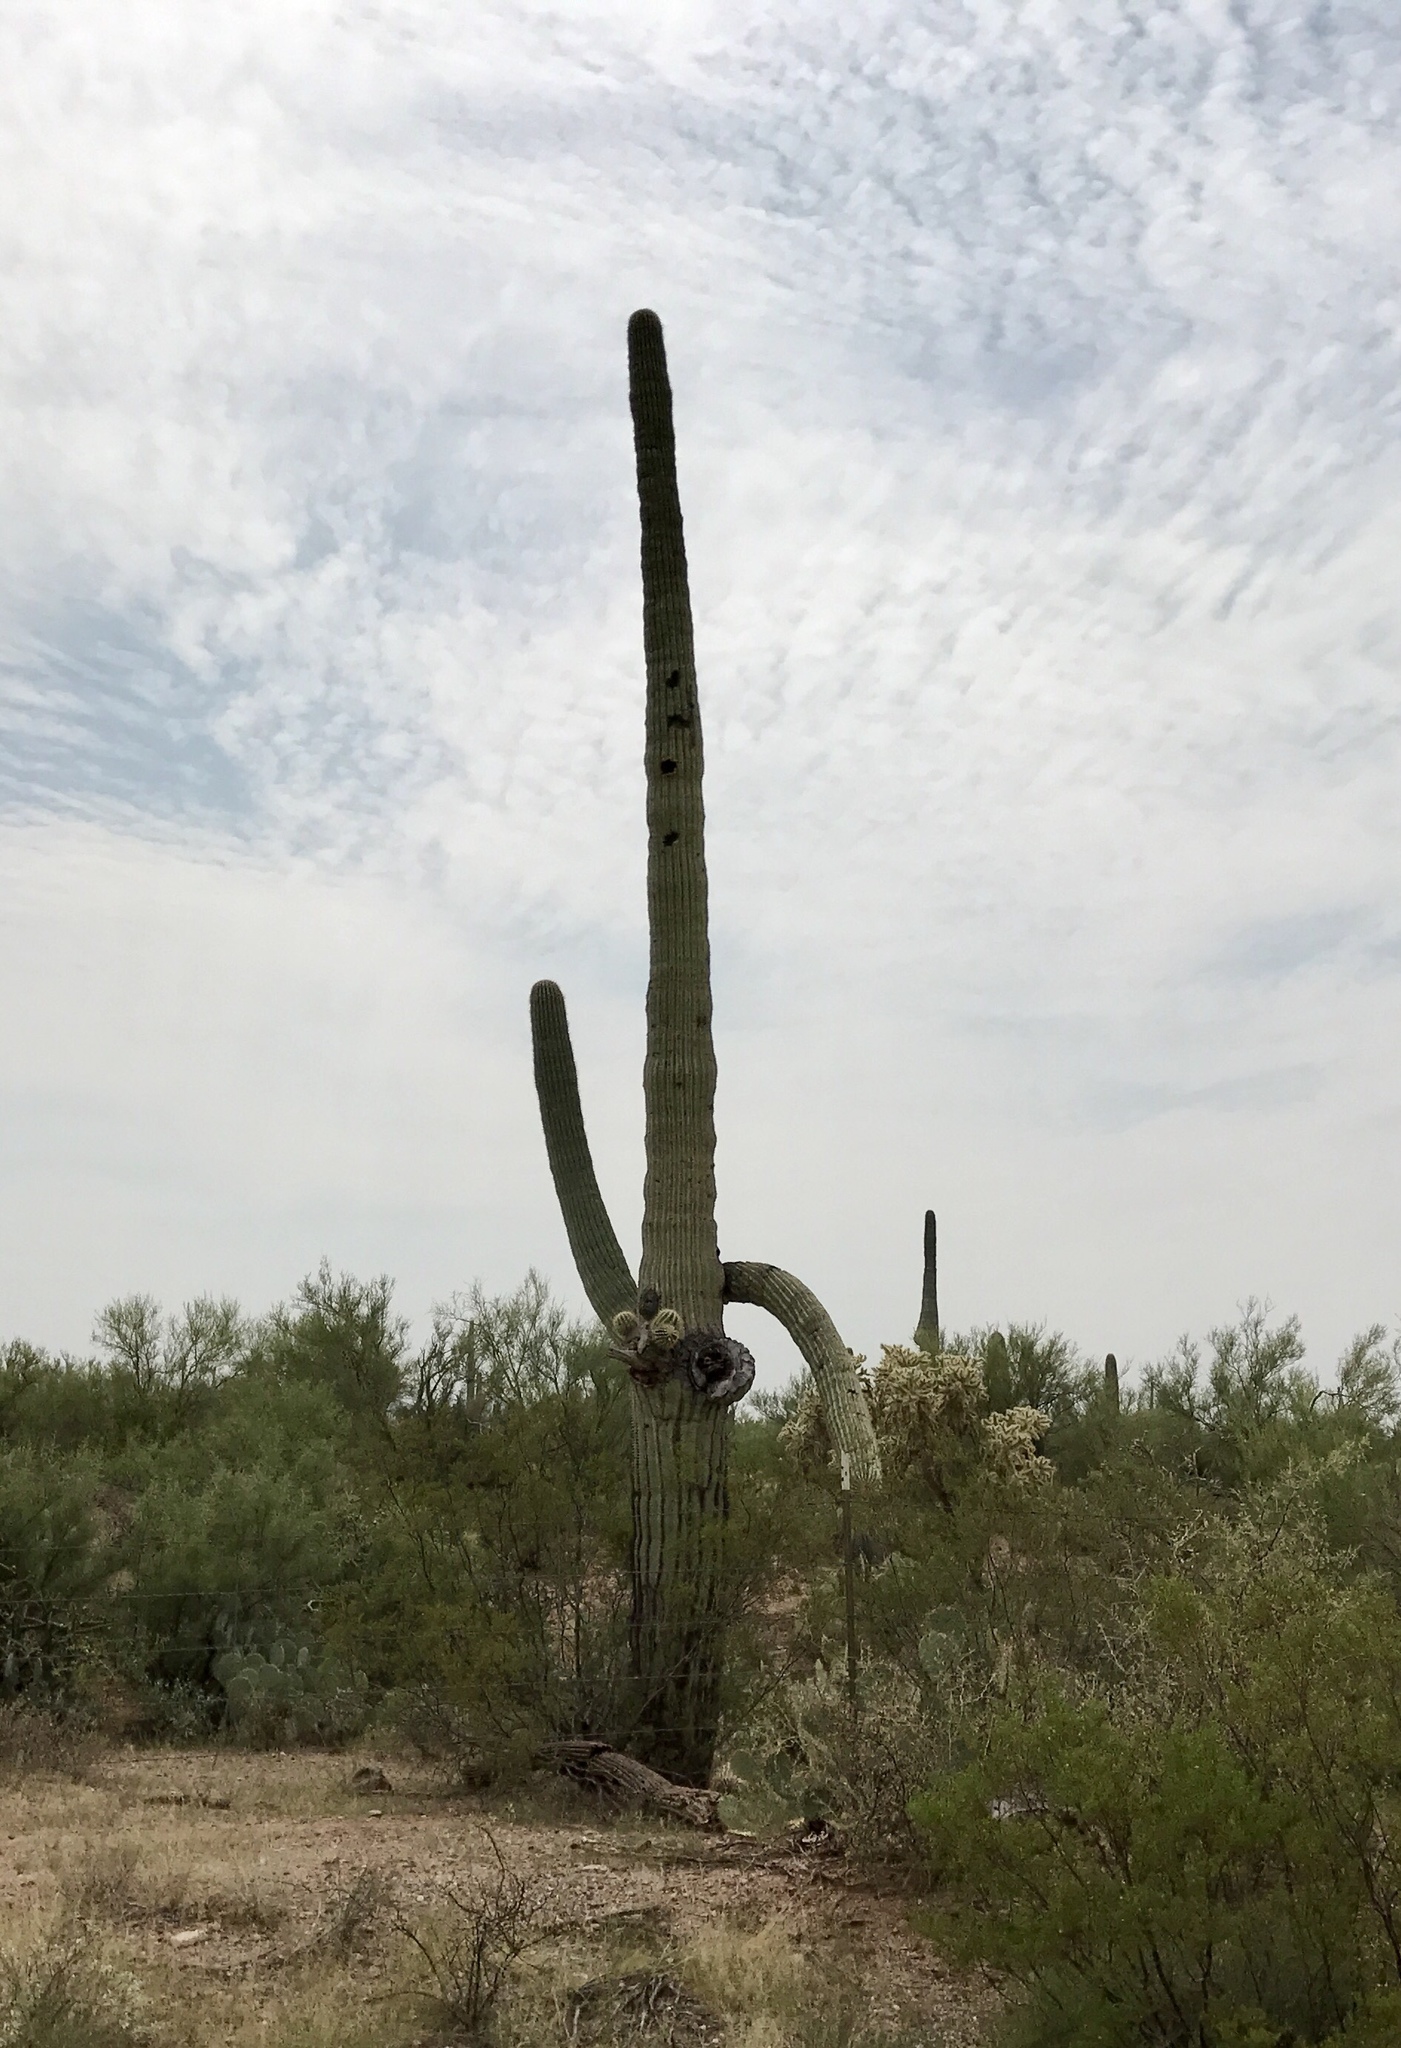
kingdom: Plantae
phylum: Tracheophyta
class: Magnoliopsida
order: Caryophyllales
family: Cactaceae
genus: Carnegiea
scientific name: Carnegiea gigantea
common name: Saguaro
